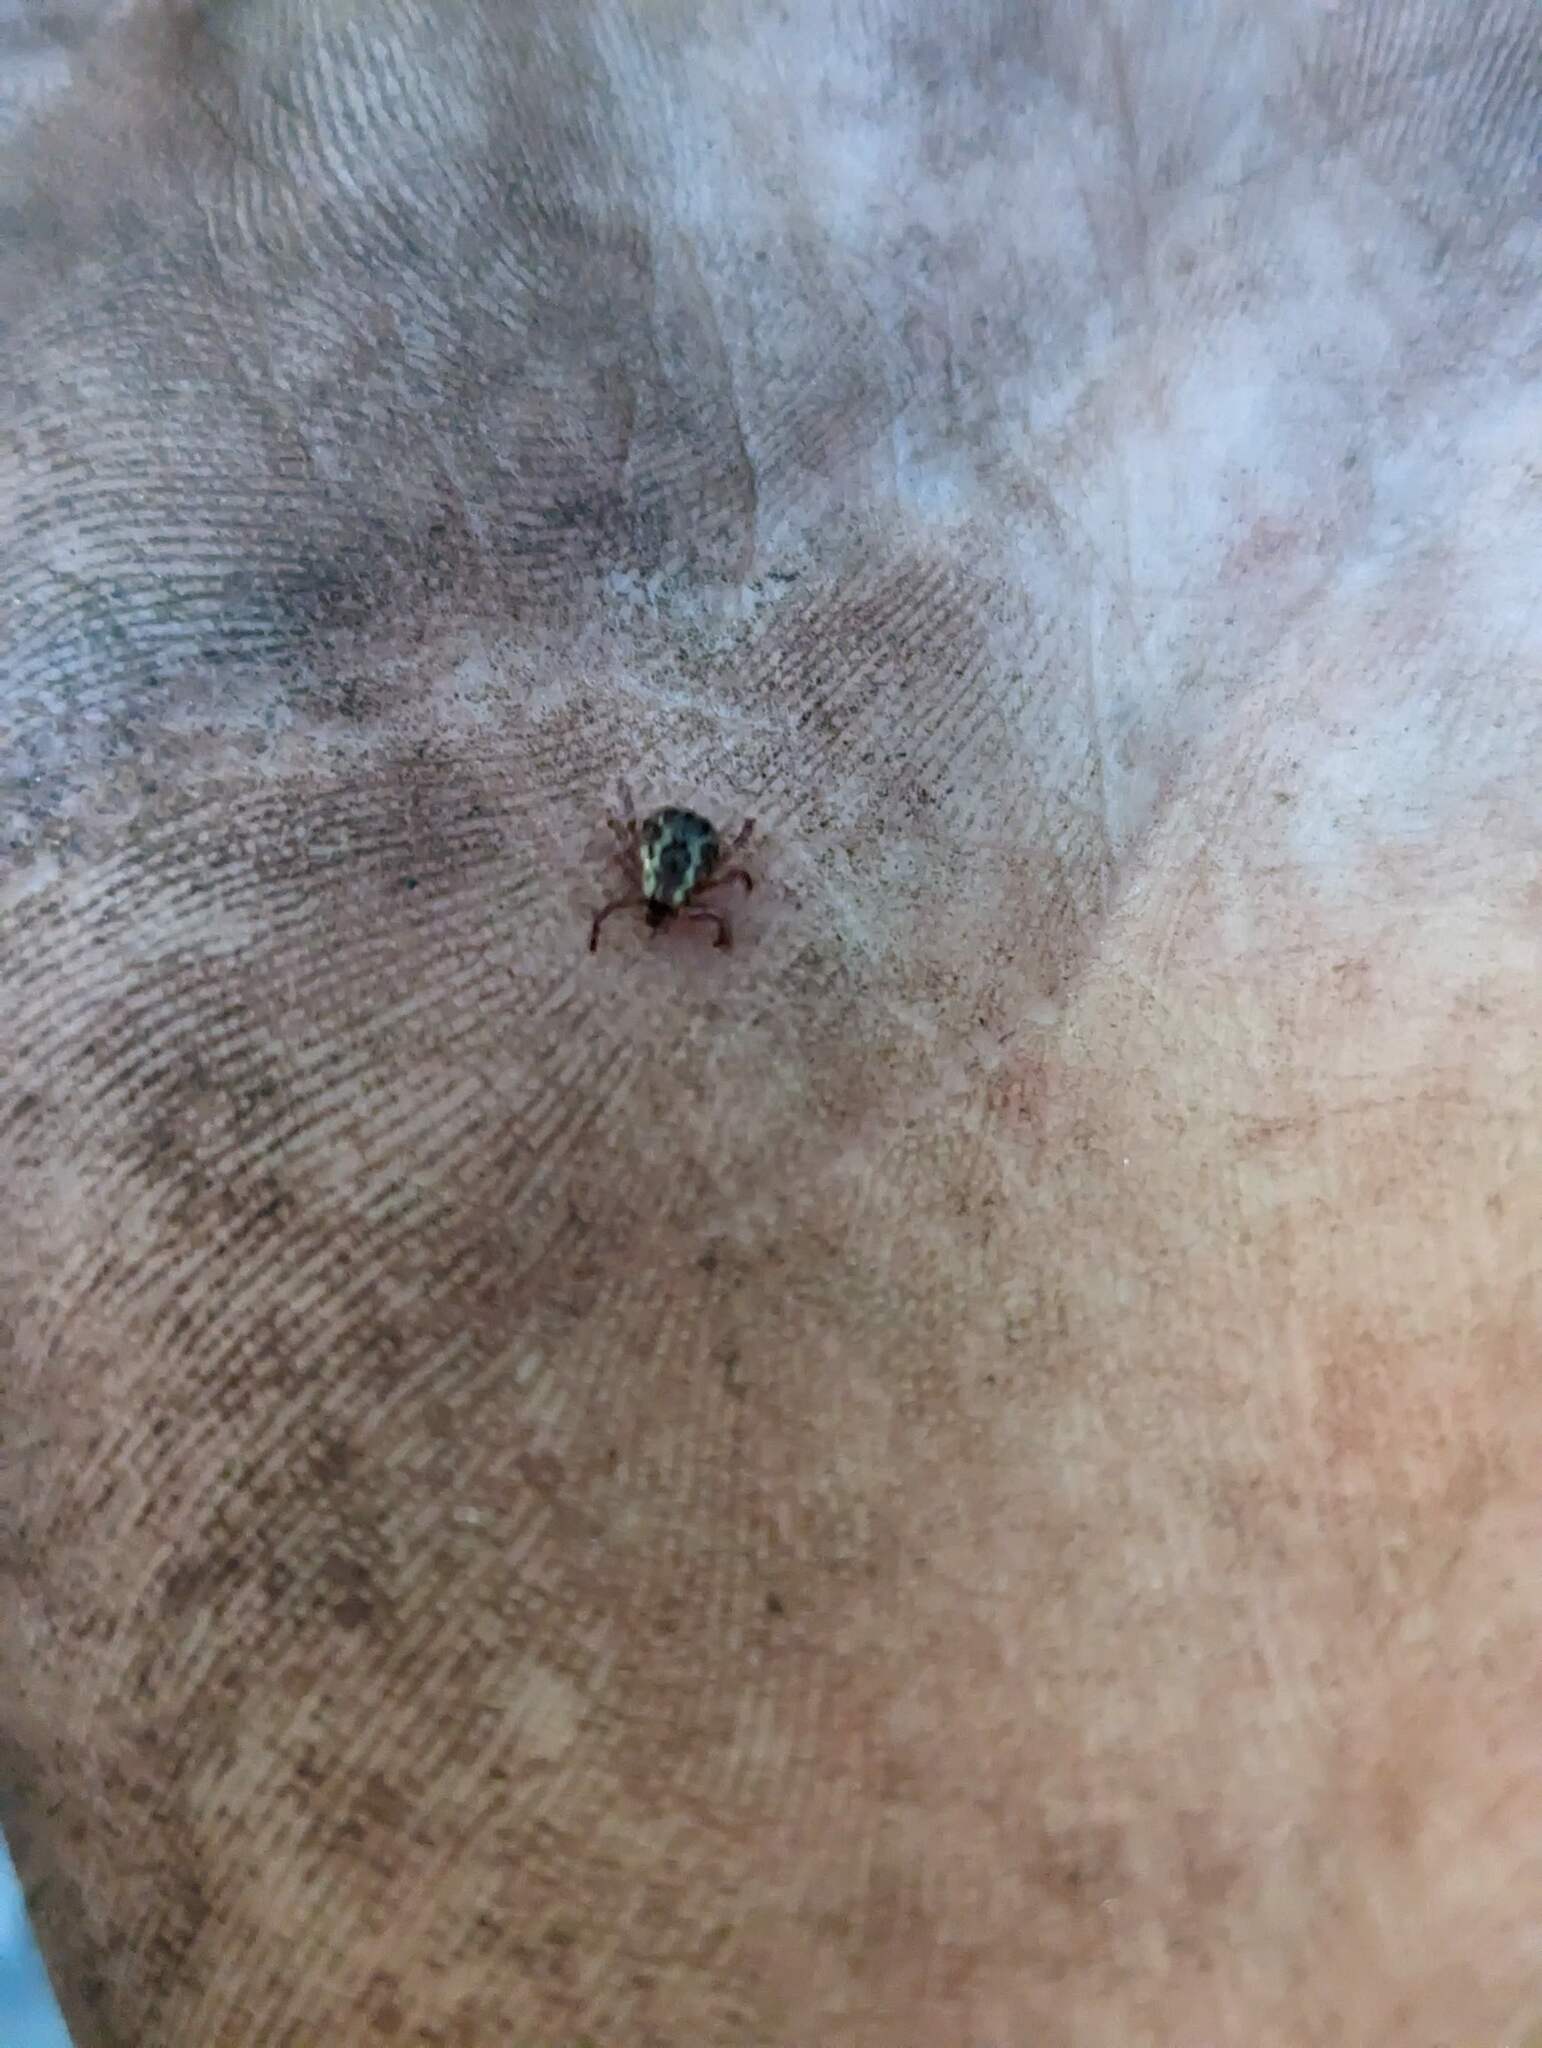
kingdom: Animalia
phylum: Arthropoda
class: Arachnida
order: Ixodida
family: Ixodidae
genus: Dermacentor
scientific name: Dermacentor variabilis
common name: American dog tick
